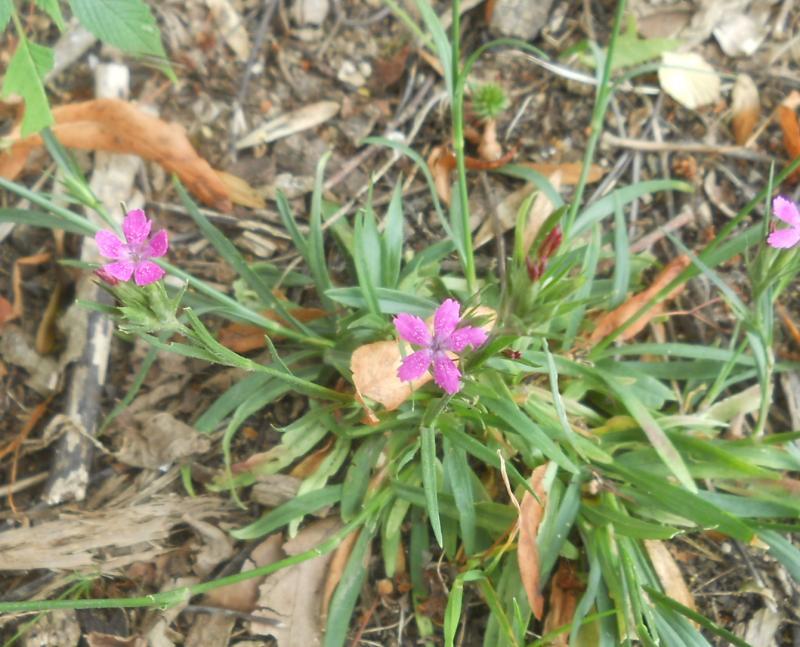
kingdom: Plantae
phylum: Tracheophyta
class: Magnoliopsida
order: Caryophyllales
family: Caryophyllaceae
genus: Dianthus
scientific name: Dianthus armeria
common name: Deptford pink
